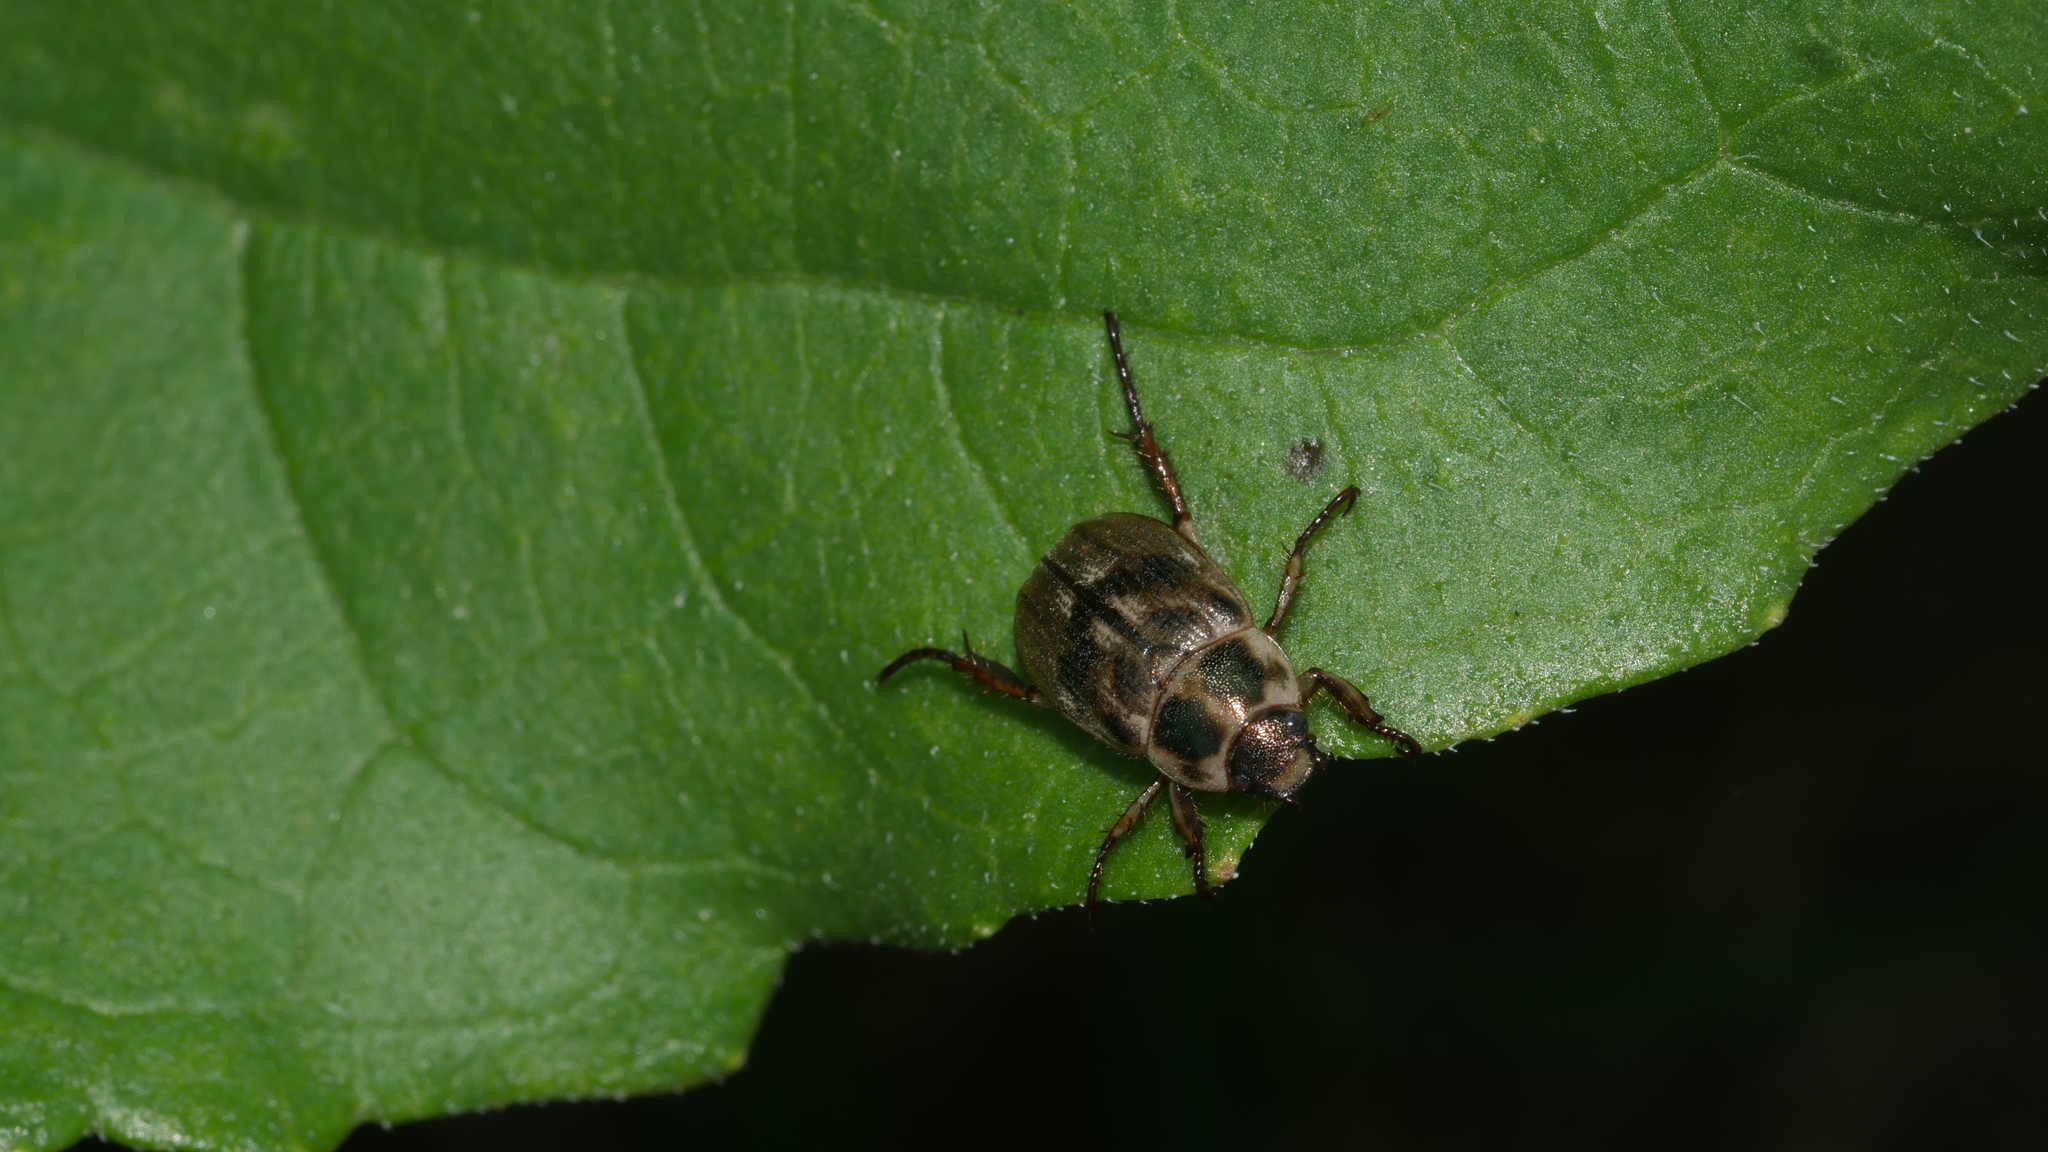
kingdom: Animalia
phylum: Arthropoda
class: Insecta
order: Coleoptera
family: Scarabaeidae
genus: Exomala
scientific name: Exomala orientalis
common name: Oriental beetle
